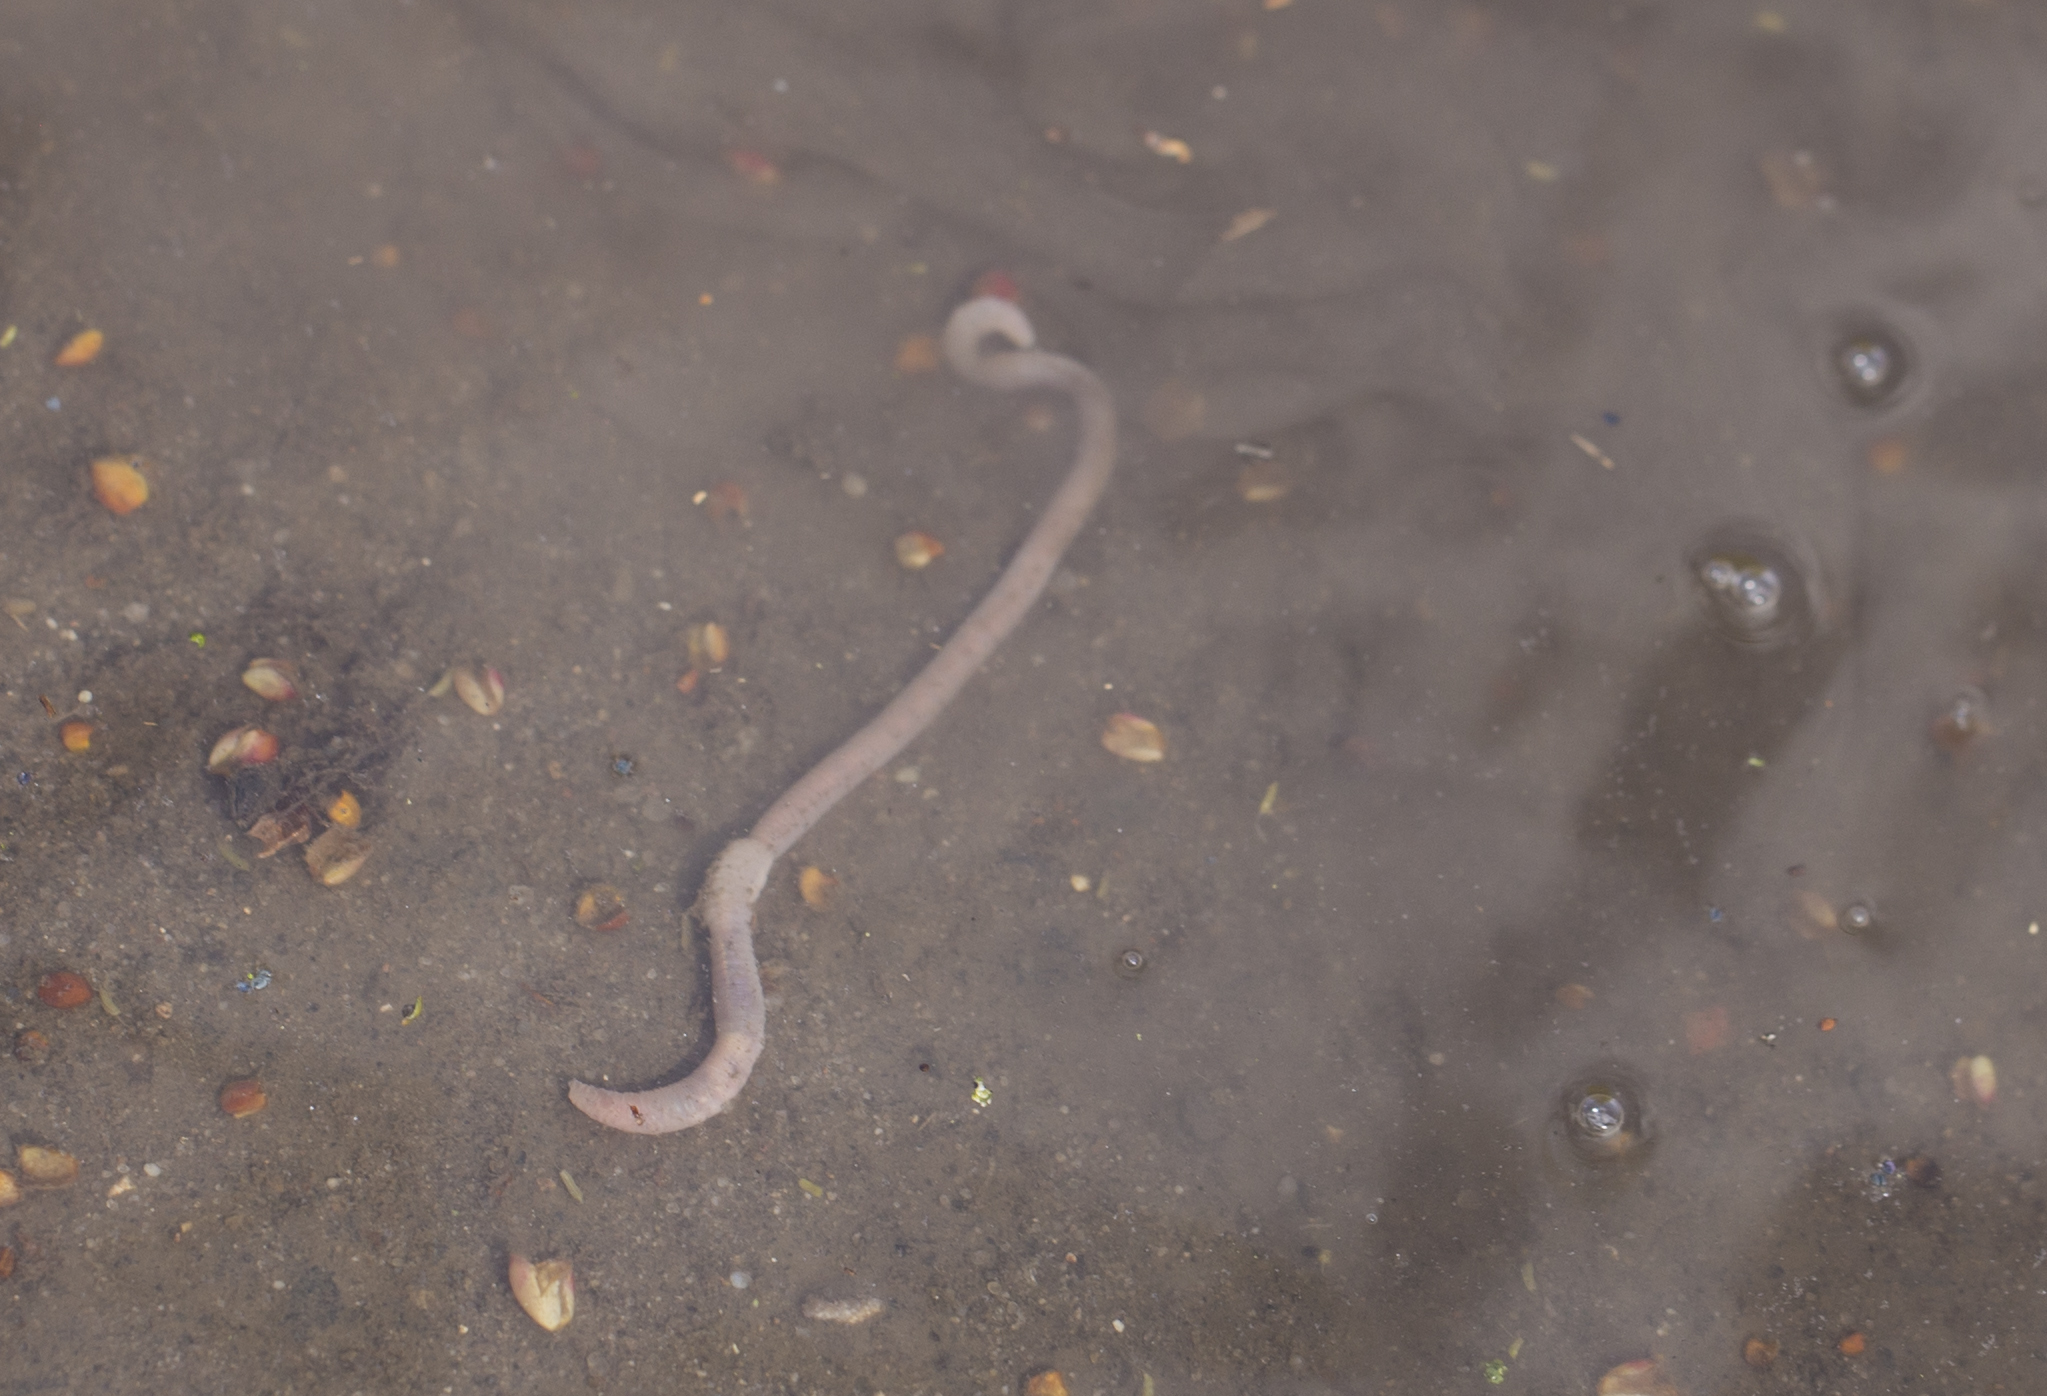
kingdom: Animalia
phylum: Annelida
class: Clitellata
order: Crassiclitellata
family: Lumbricidae
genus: Lumbricus
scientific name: Lumbricus terrestris
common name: Common earthworm
